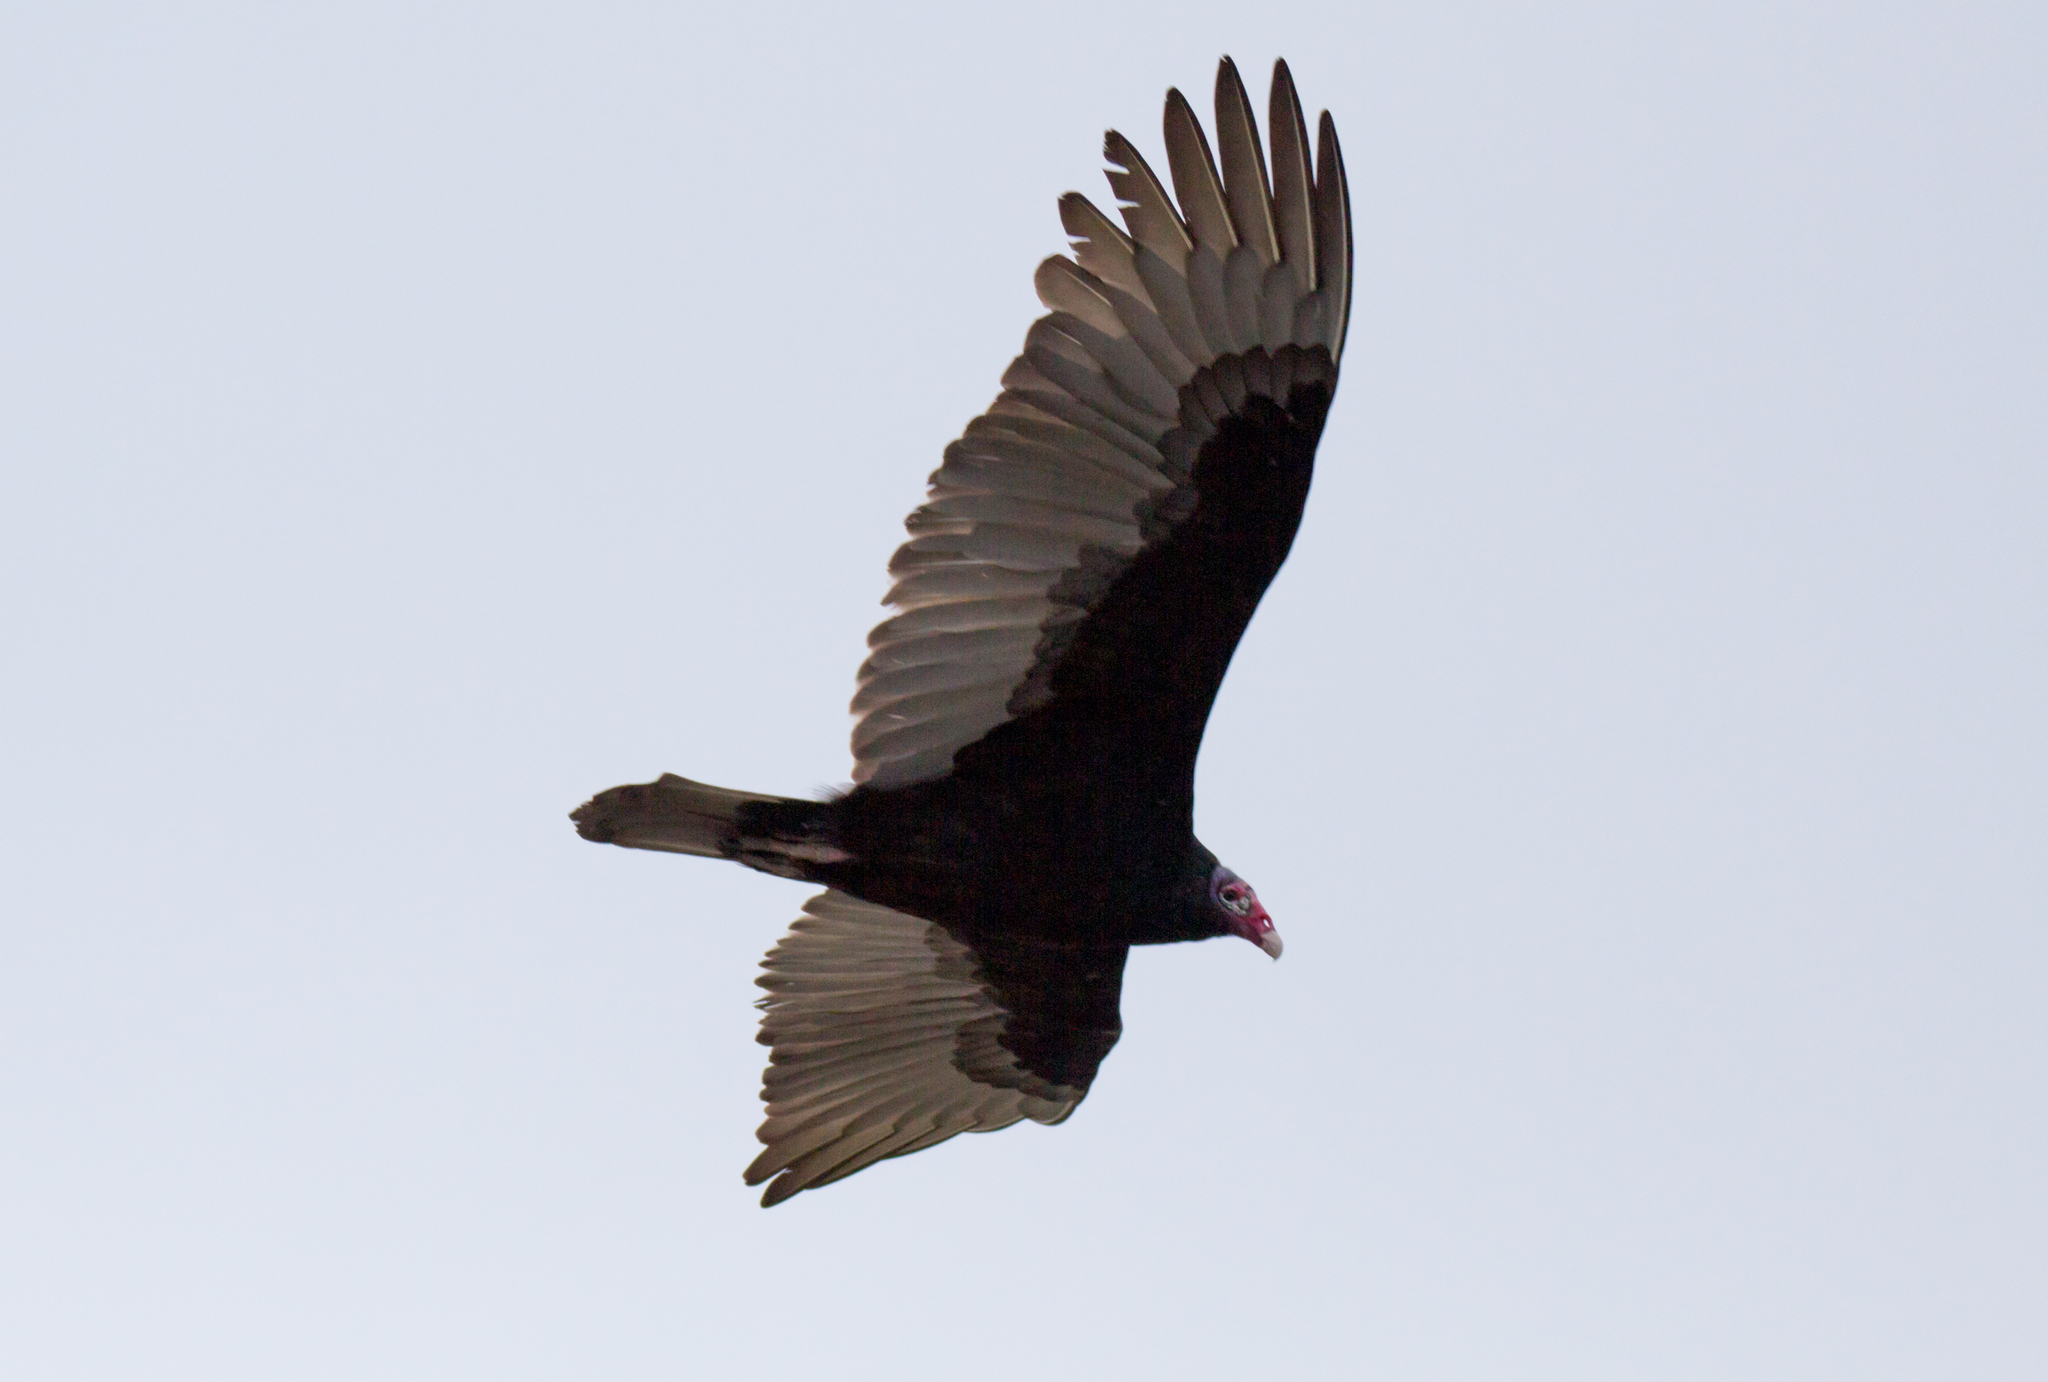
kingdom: Animalia
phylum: Chordata
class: Aves
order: Accipitriformes
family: Cathartidae
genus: Cathartes
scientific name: Cathartes aura
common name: Turkey vulture
